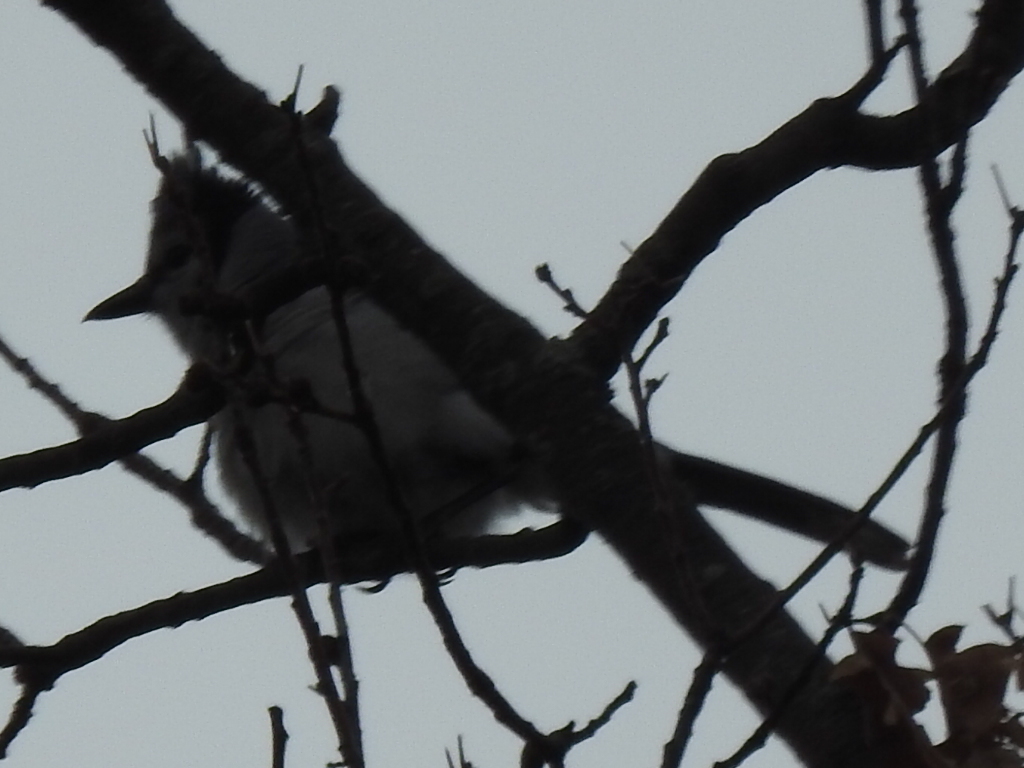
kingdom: Animalia
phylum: Chordata
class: Aves
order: Passeriformes
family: Corvidae
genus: Cyanocitta
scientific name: Cyanocitta cristata
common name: Blue jay
